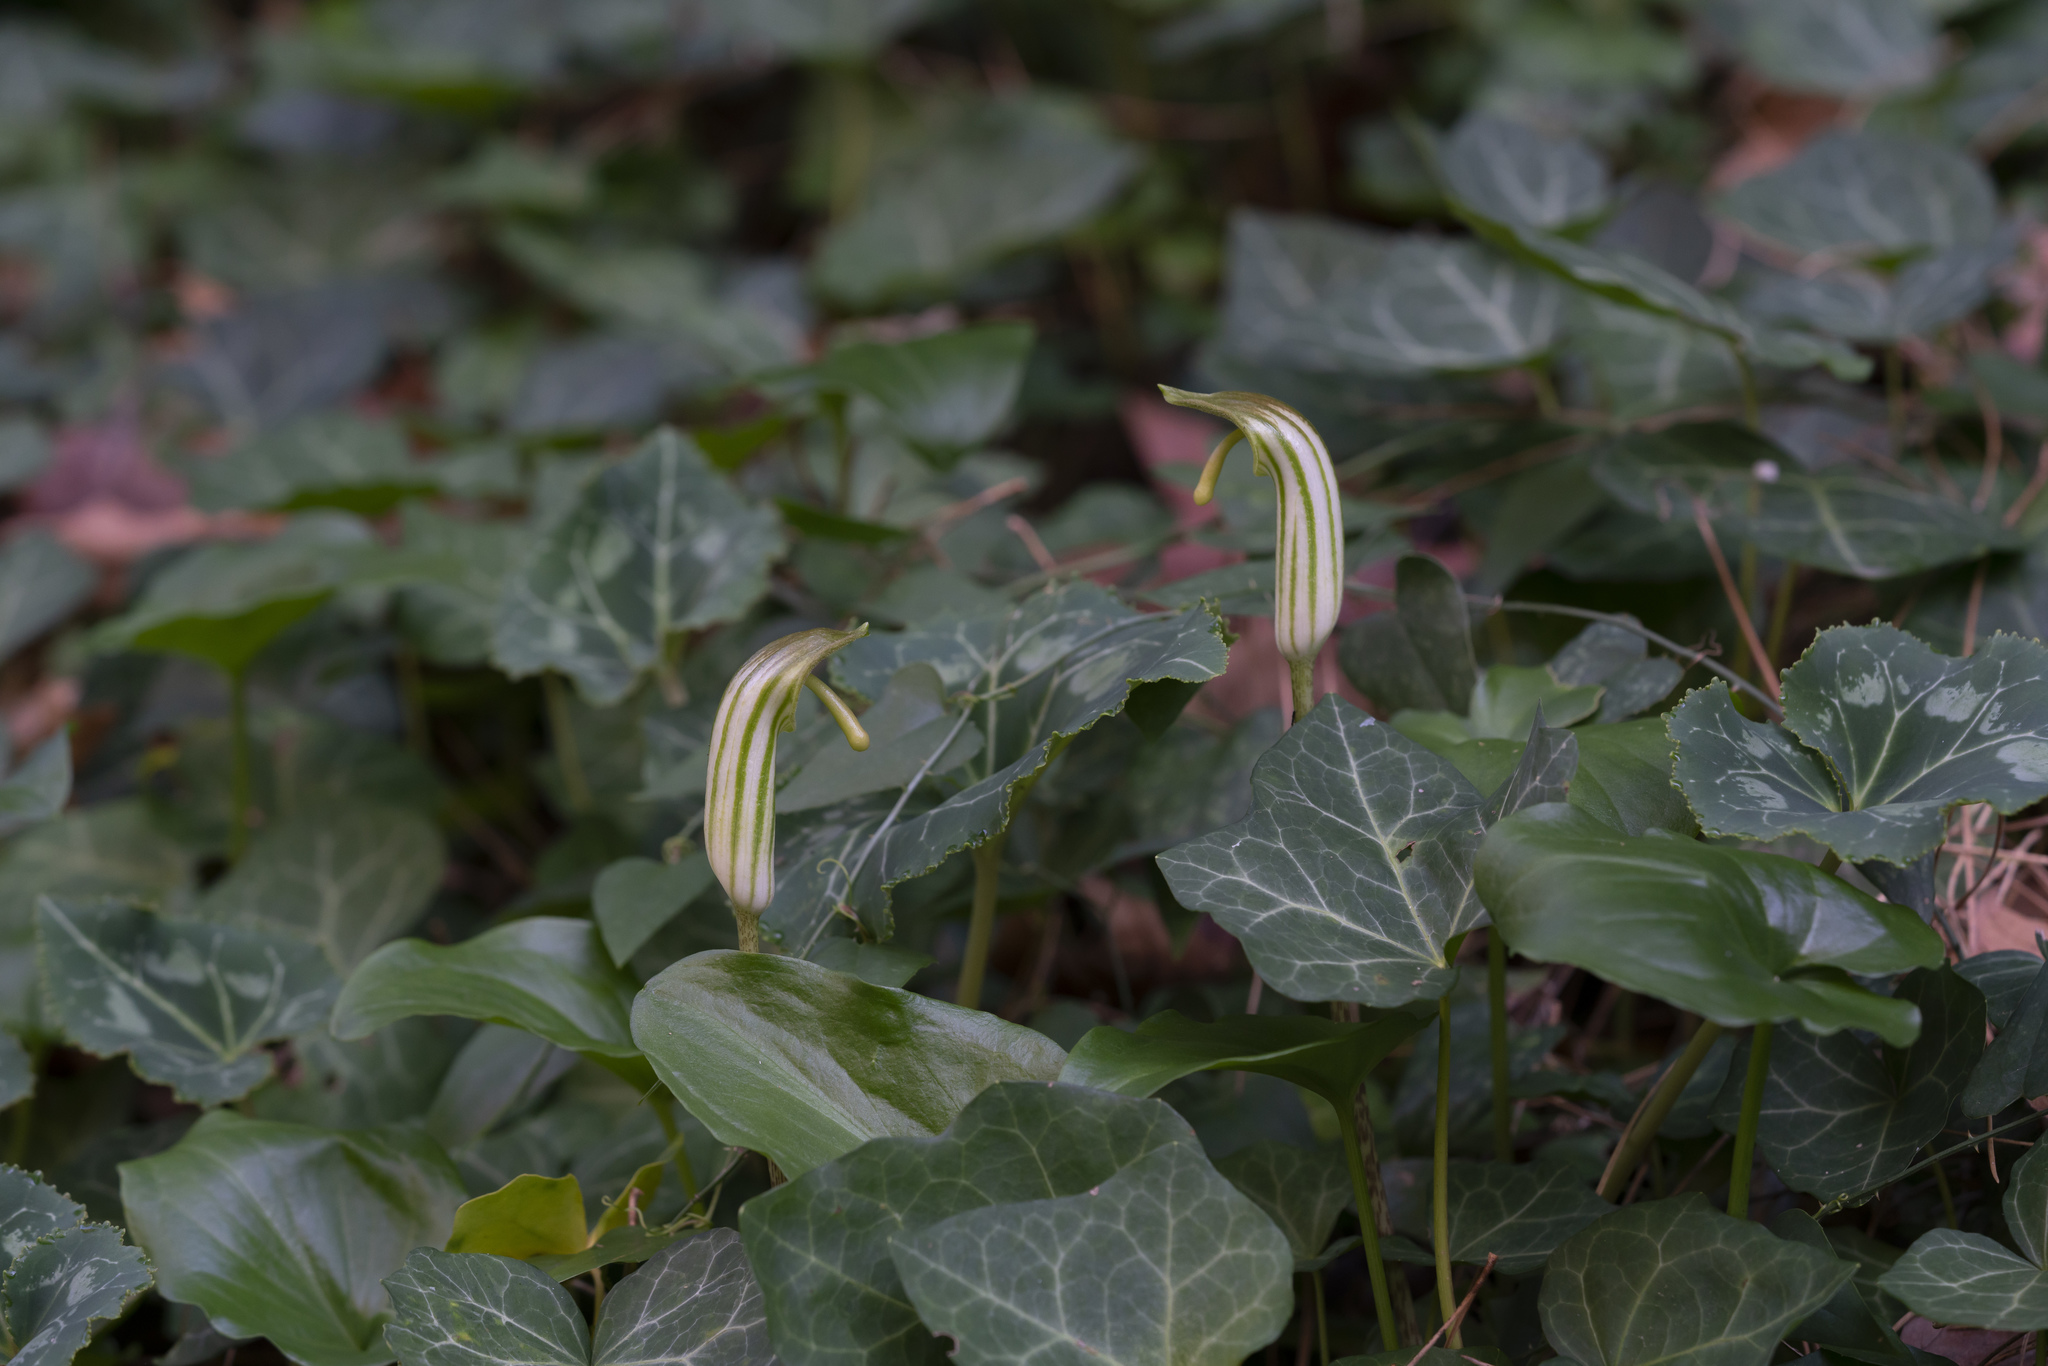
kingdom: Plantae
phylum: Tracheophyta
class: Liliopsida
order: Alismatales
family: Araceae
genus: Arisarum
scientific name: Arisarum vulgare
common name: Common arisarum
